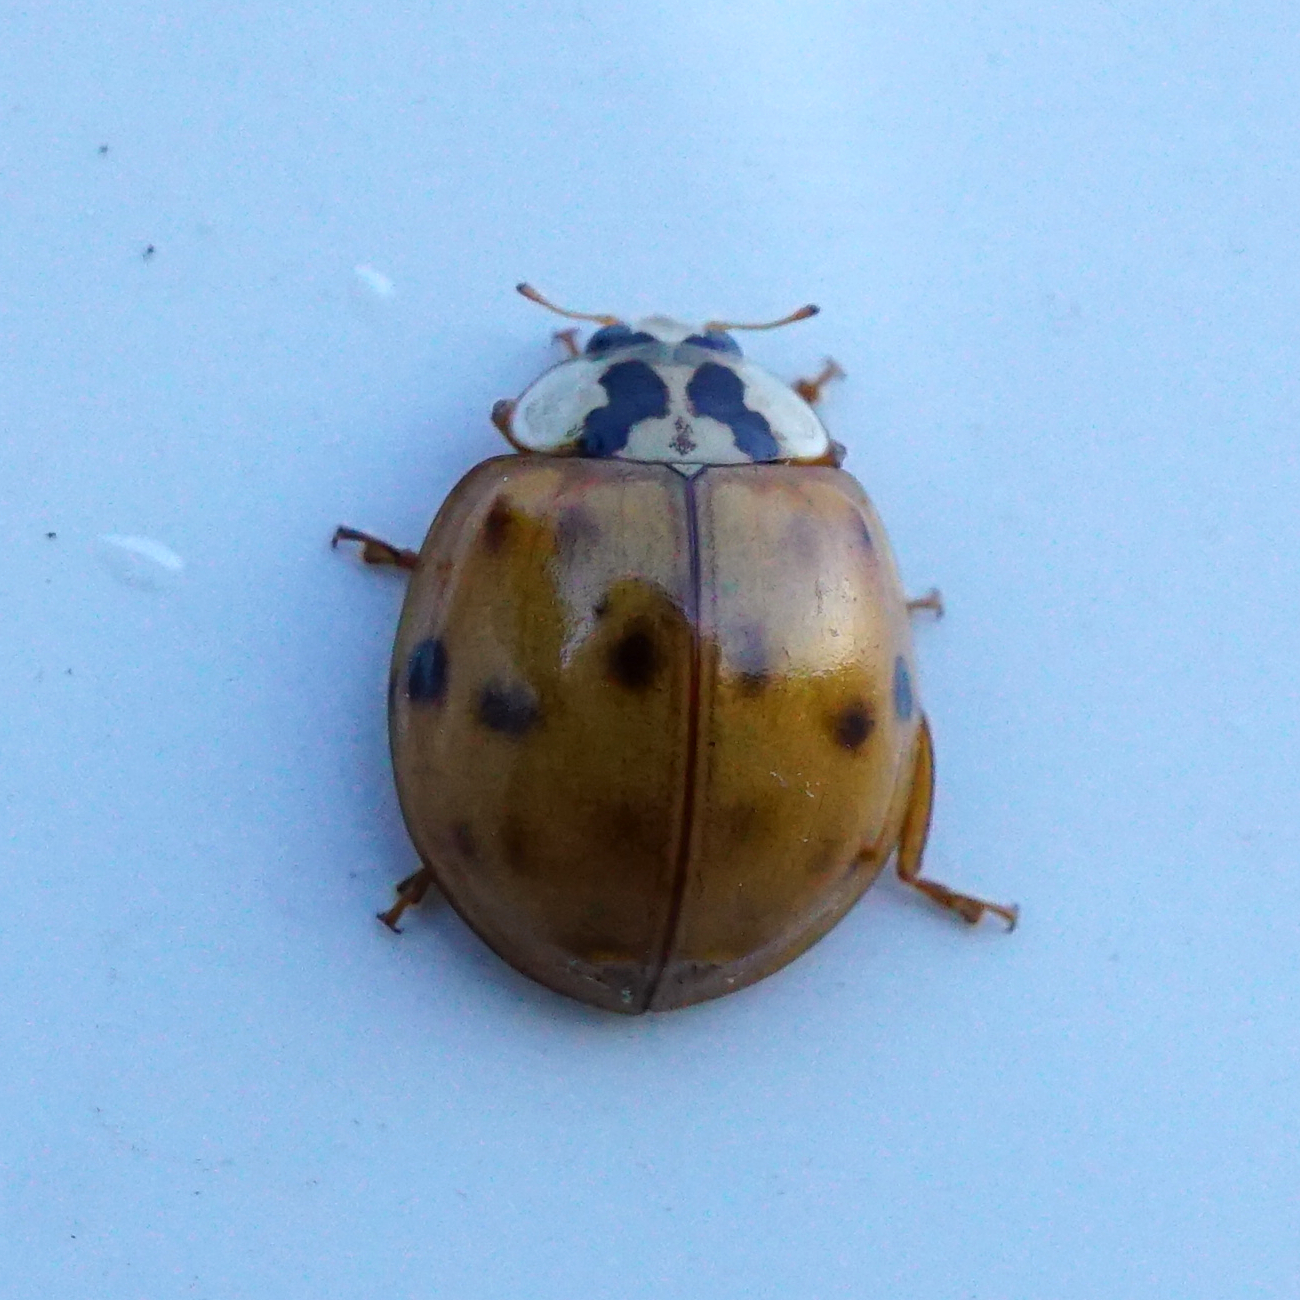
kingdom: Animalia
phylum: Arthropoda
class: Insecta
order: Coleoptera
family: Coccinellidae
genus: Harmonia
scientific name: Harmonia axyridis
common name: Harlequin ladybird
